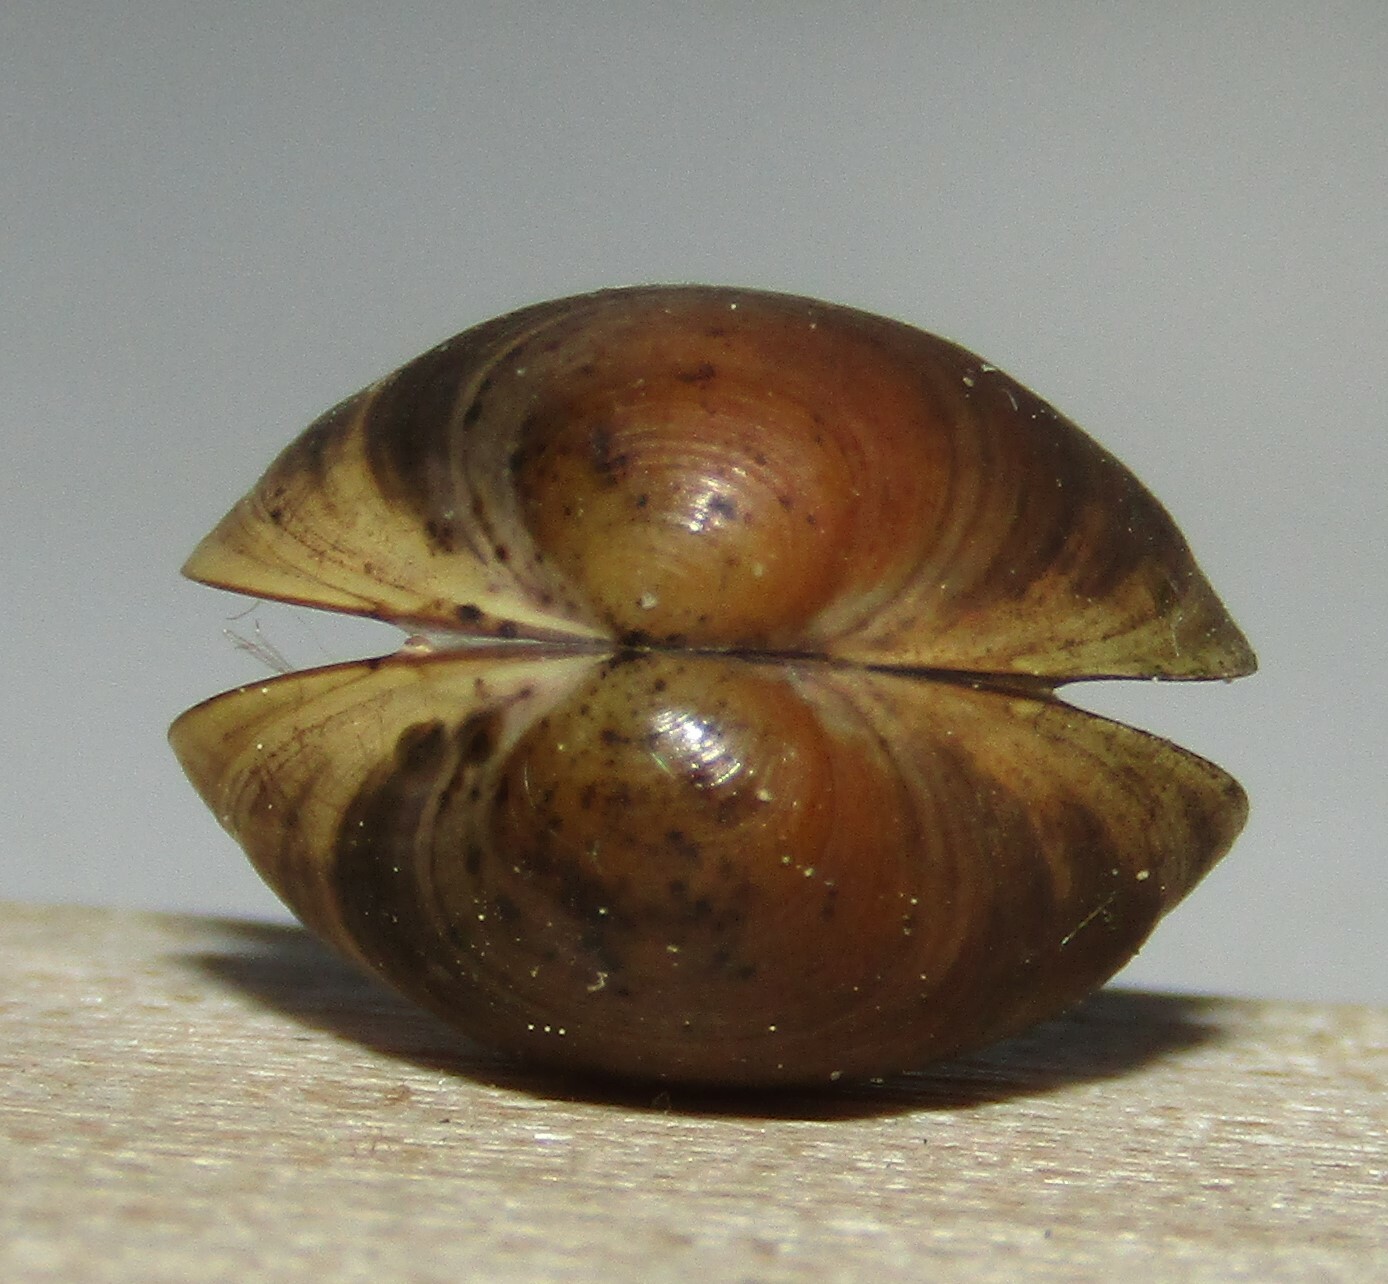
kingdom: Animalia
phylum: Mollusca
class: Bivalvia
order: Sphaeriida
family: Sphaeriidae
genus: Sphaerium
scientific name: Sphaerium corneum
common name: Horny orb mussel
